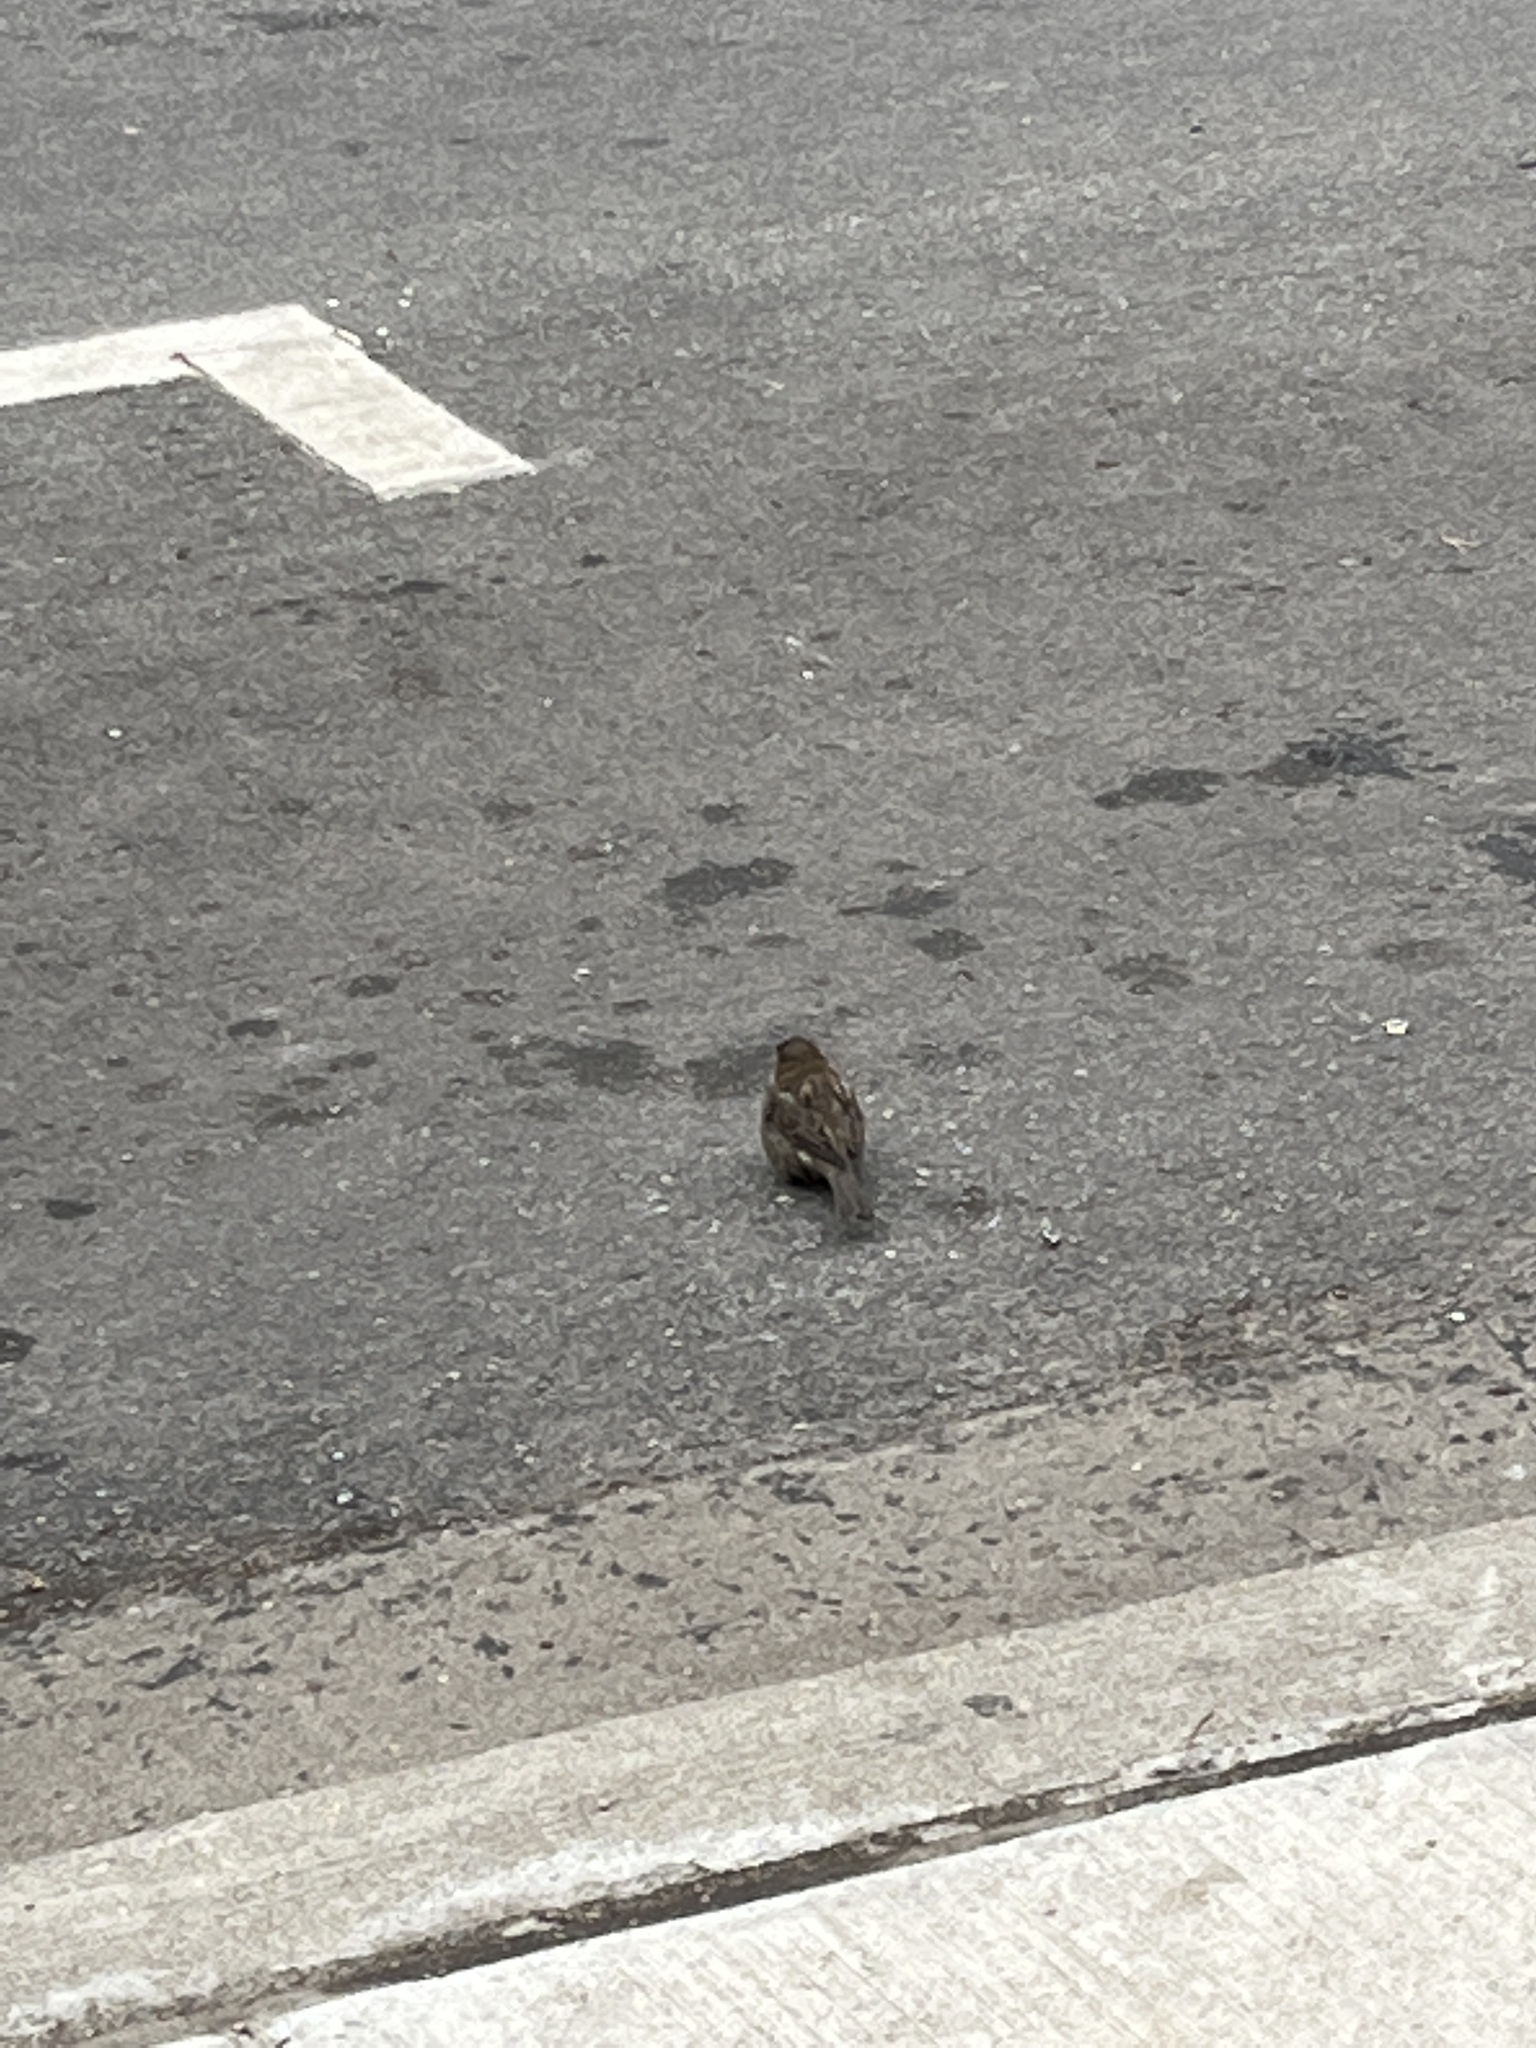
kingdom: Animalia
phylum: Chordata
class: Aves
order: Passeriformes
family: Passeridae
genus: Passer
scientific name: Passer domesticus
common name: House sparrow
